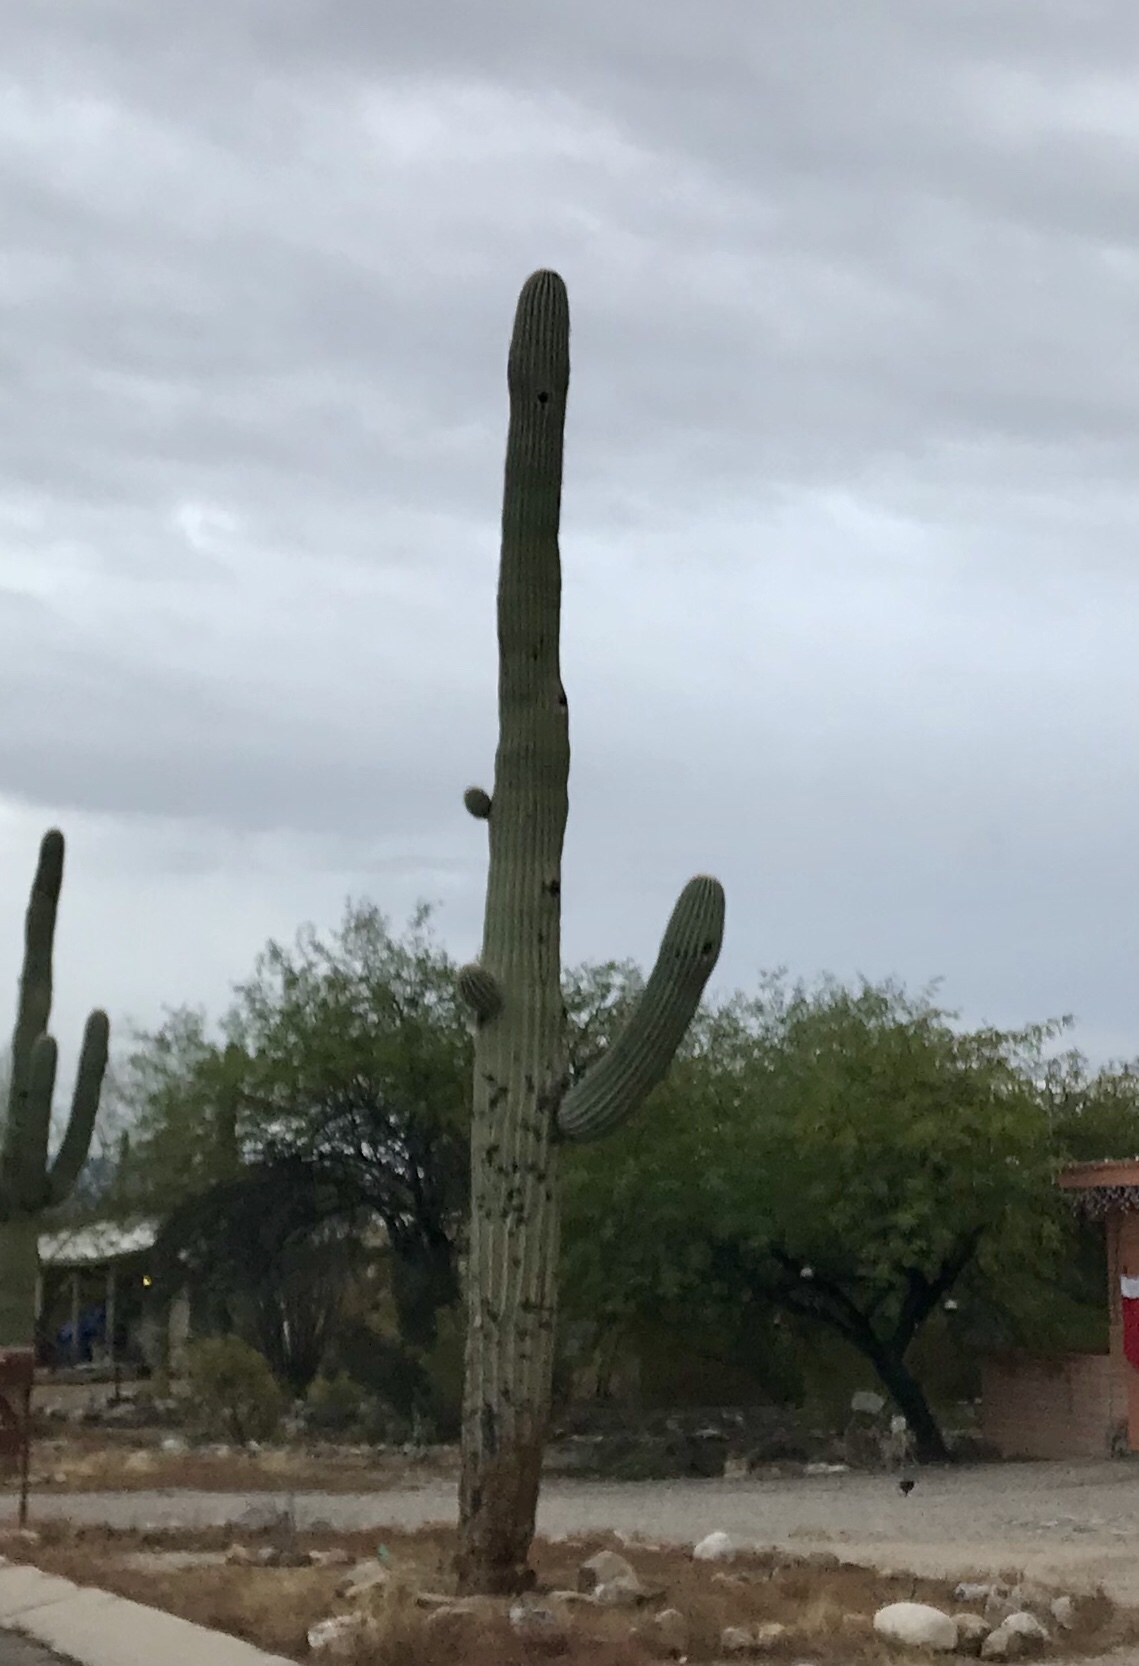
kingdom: Plantae
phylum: Tracheophyta
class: Magnoliopsida
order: Caryophyllales
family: Cactaceae
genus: Carnegiea
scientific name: Carnegiea gigantea
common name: Saguaro
